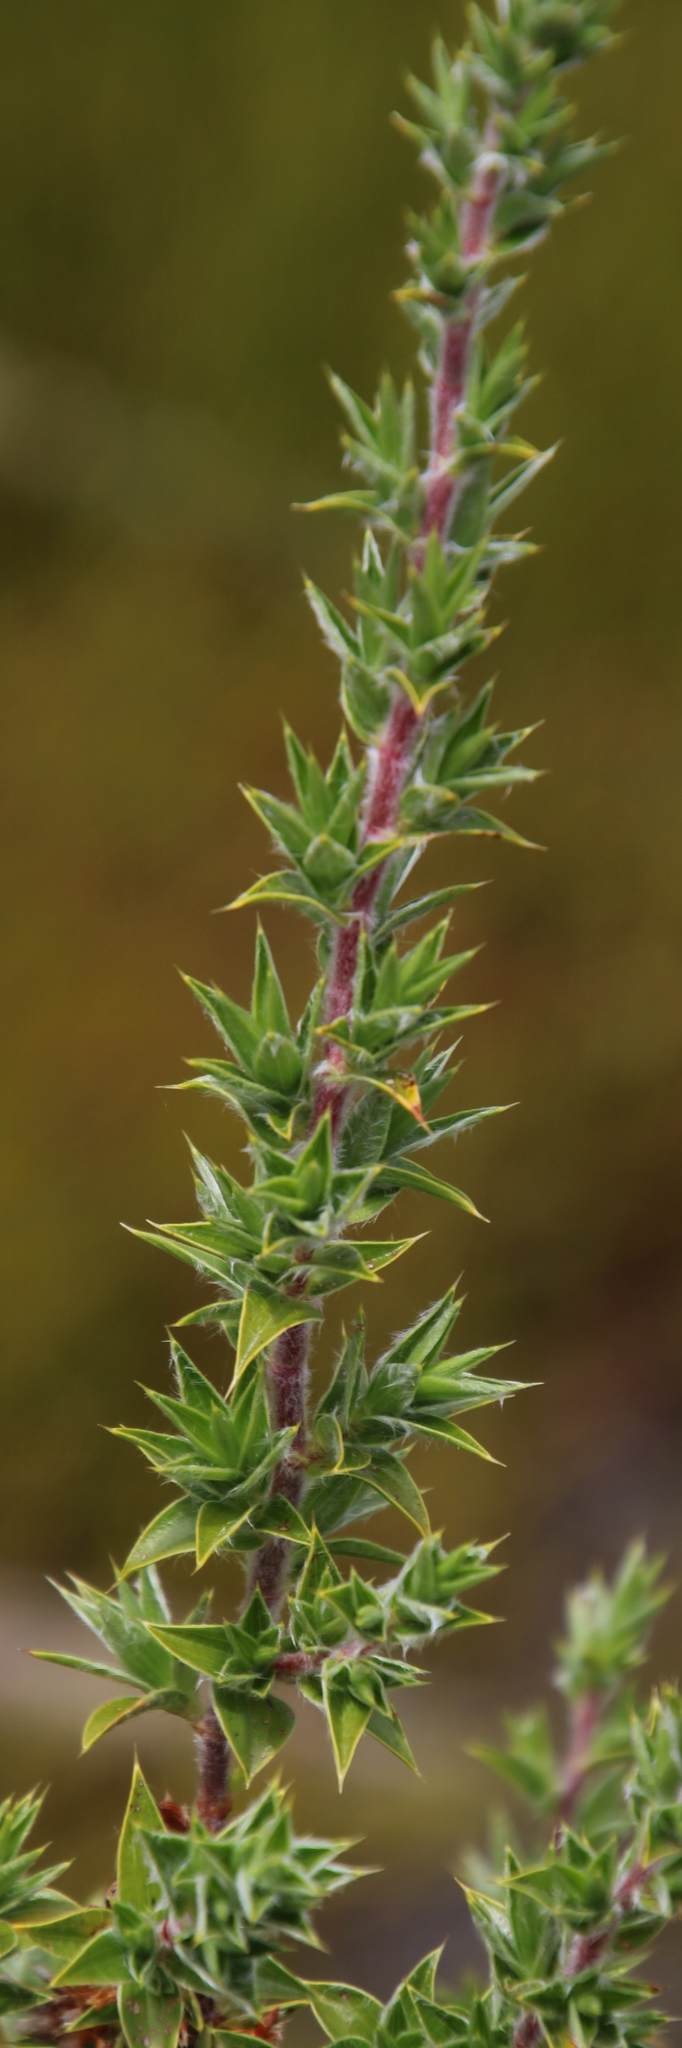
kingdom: Plantae
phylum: Tracheophyta
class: Magnoliopsida
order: Rosales
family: Rosaceae
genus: Cliffortia
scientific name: Cliffortia ruscifolia
